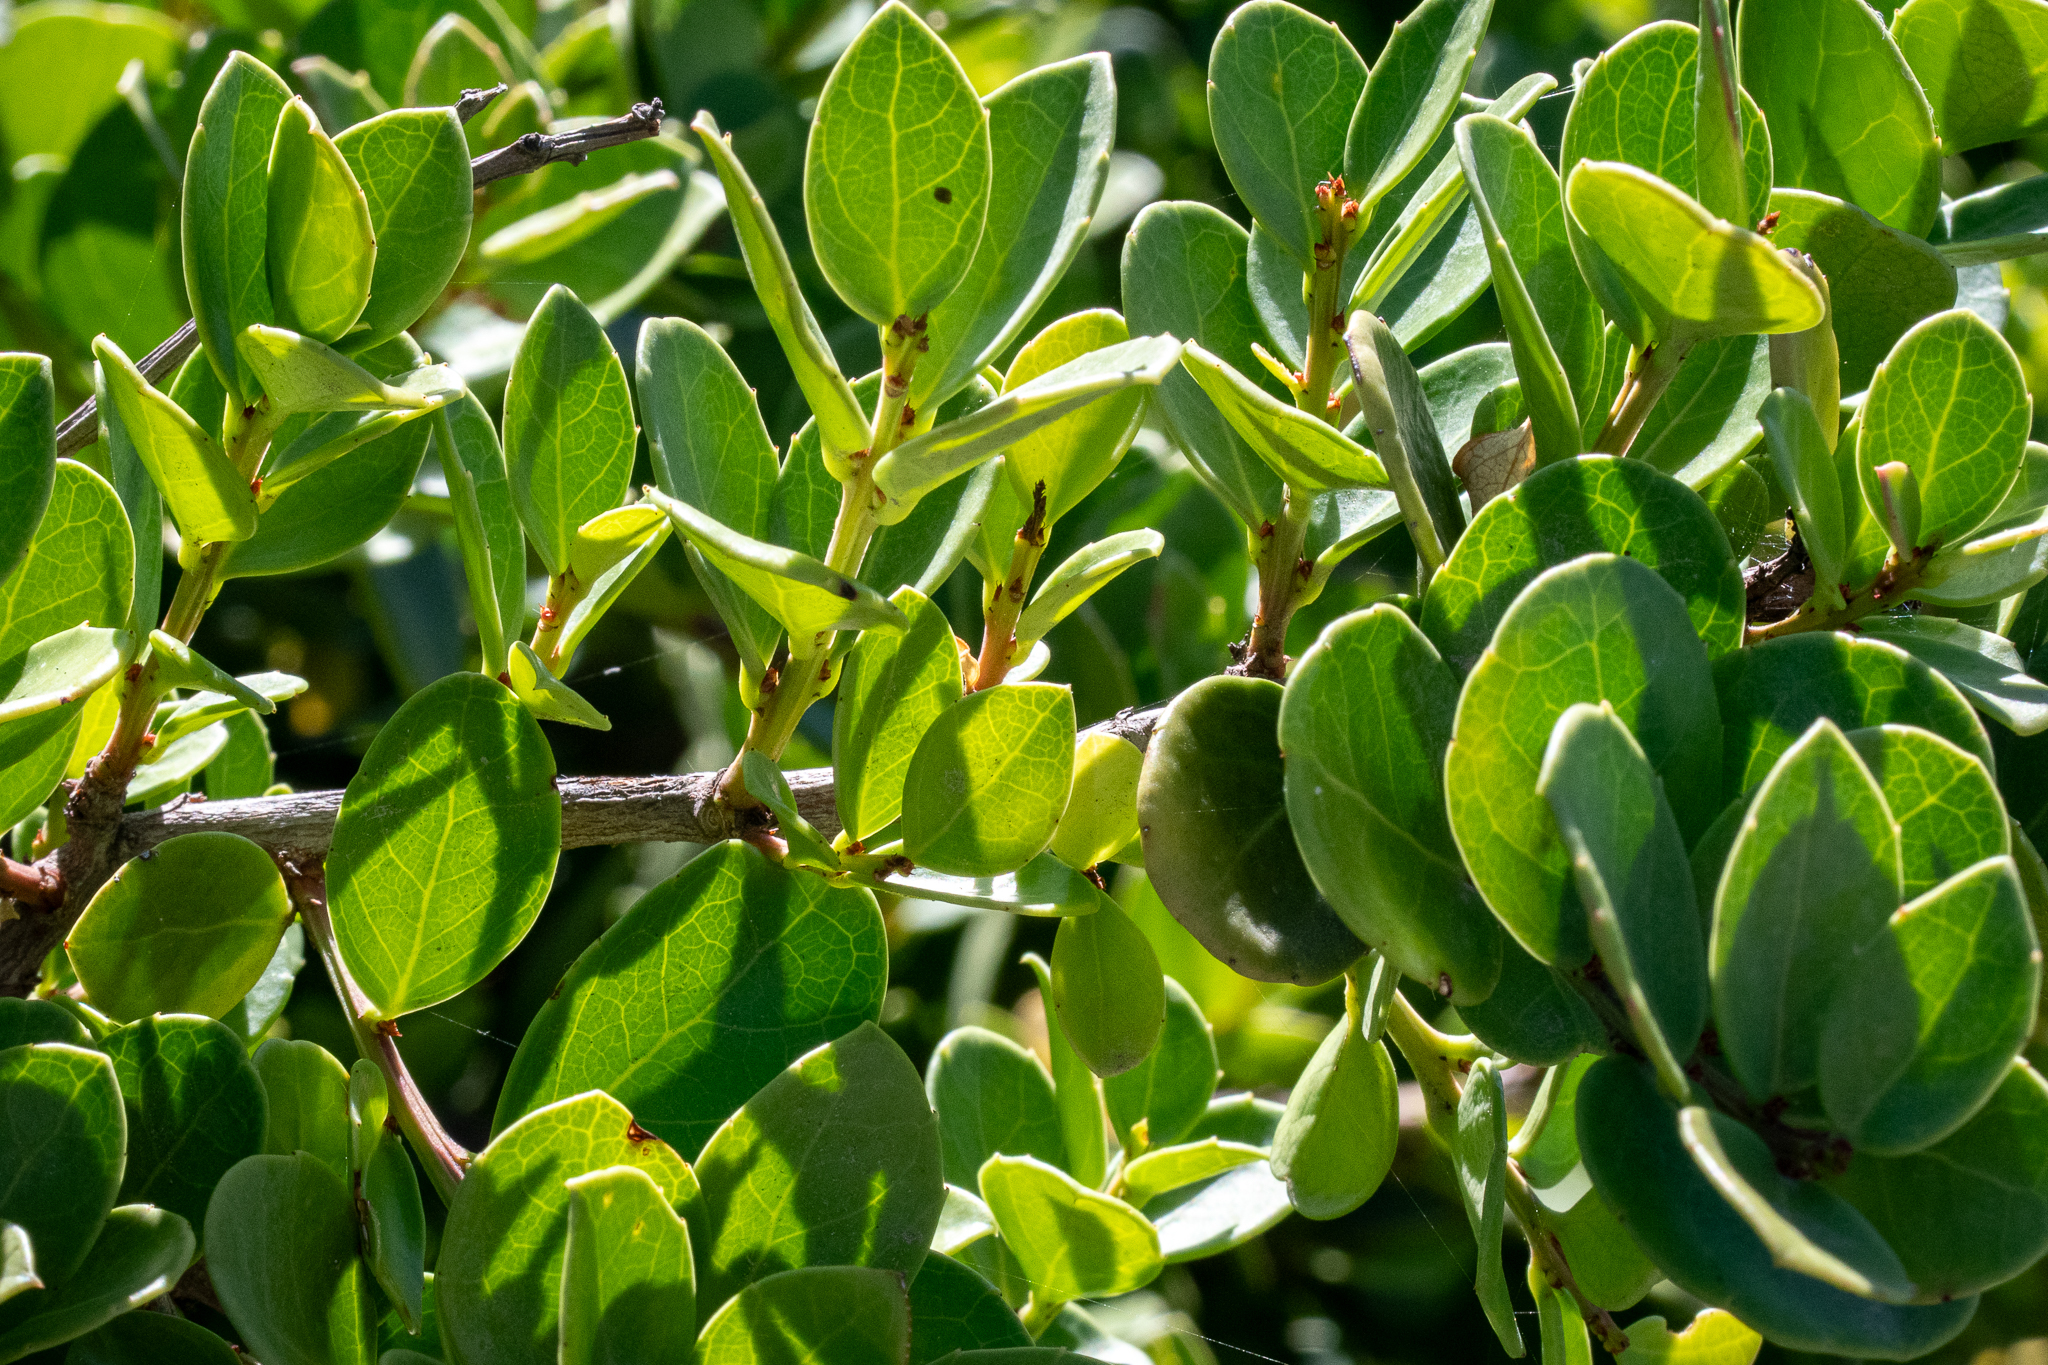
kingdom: Plantae
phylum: Tracheophyta
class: Magnoliopsida
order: Celastrales
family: Celastraceae
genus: Gymnosporia
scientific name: Gymnosporia lucida
